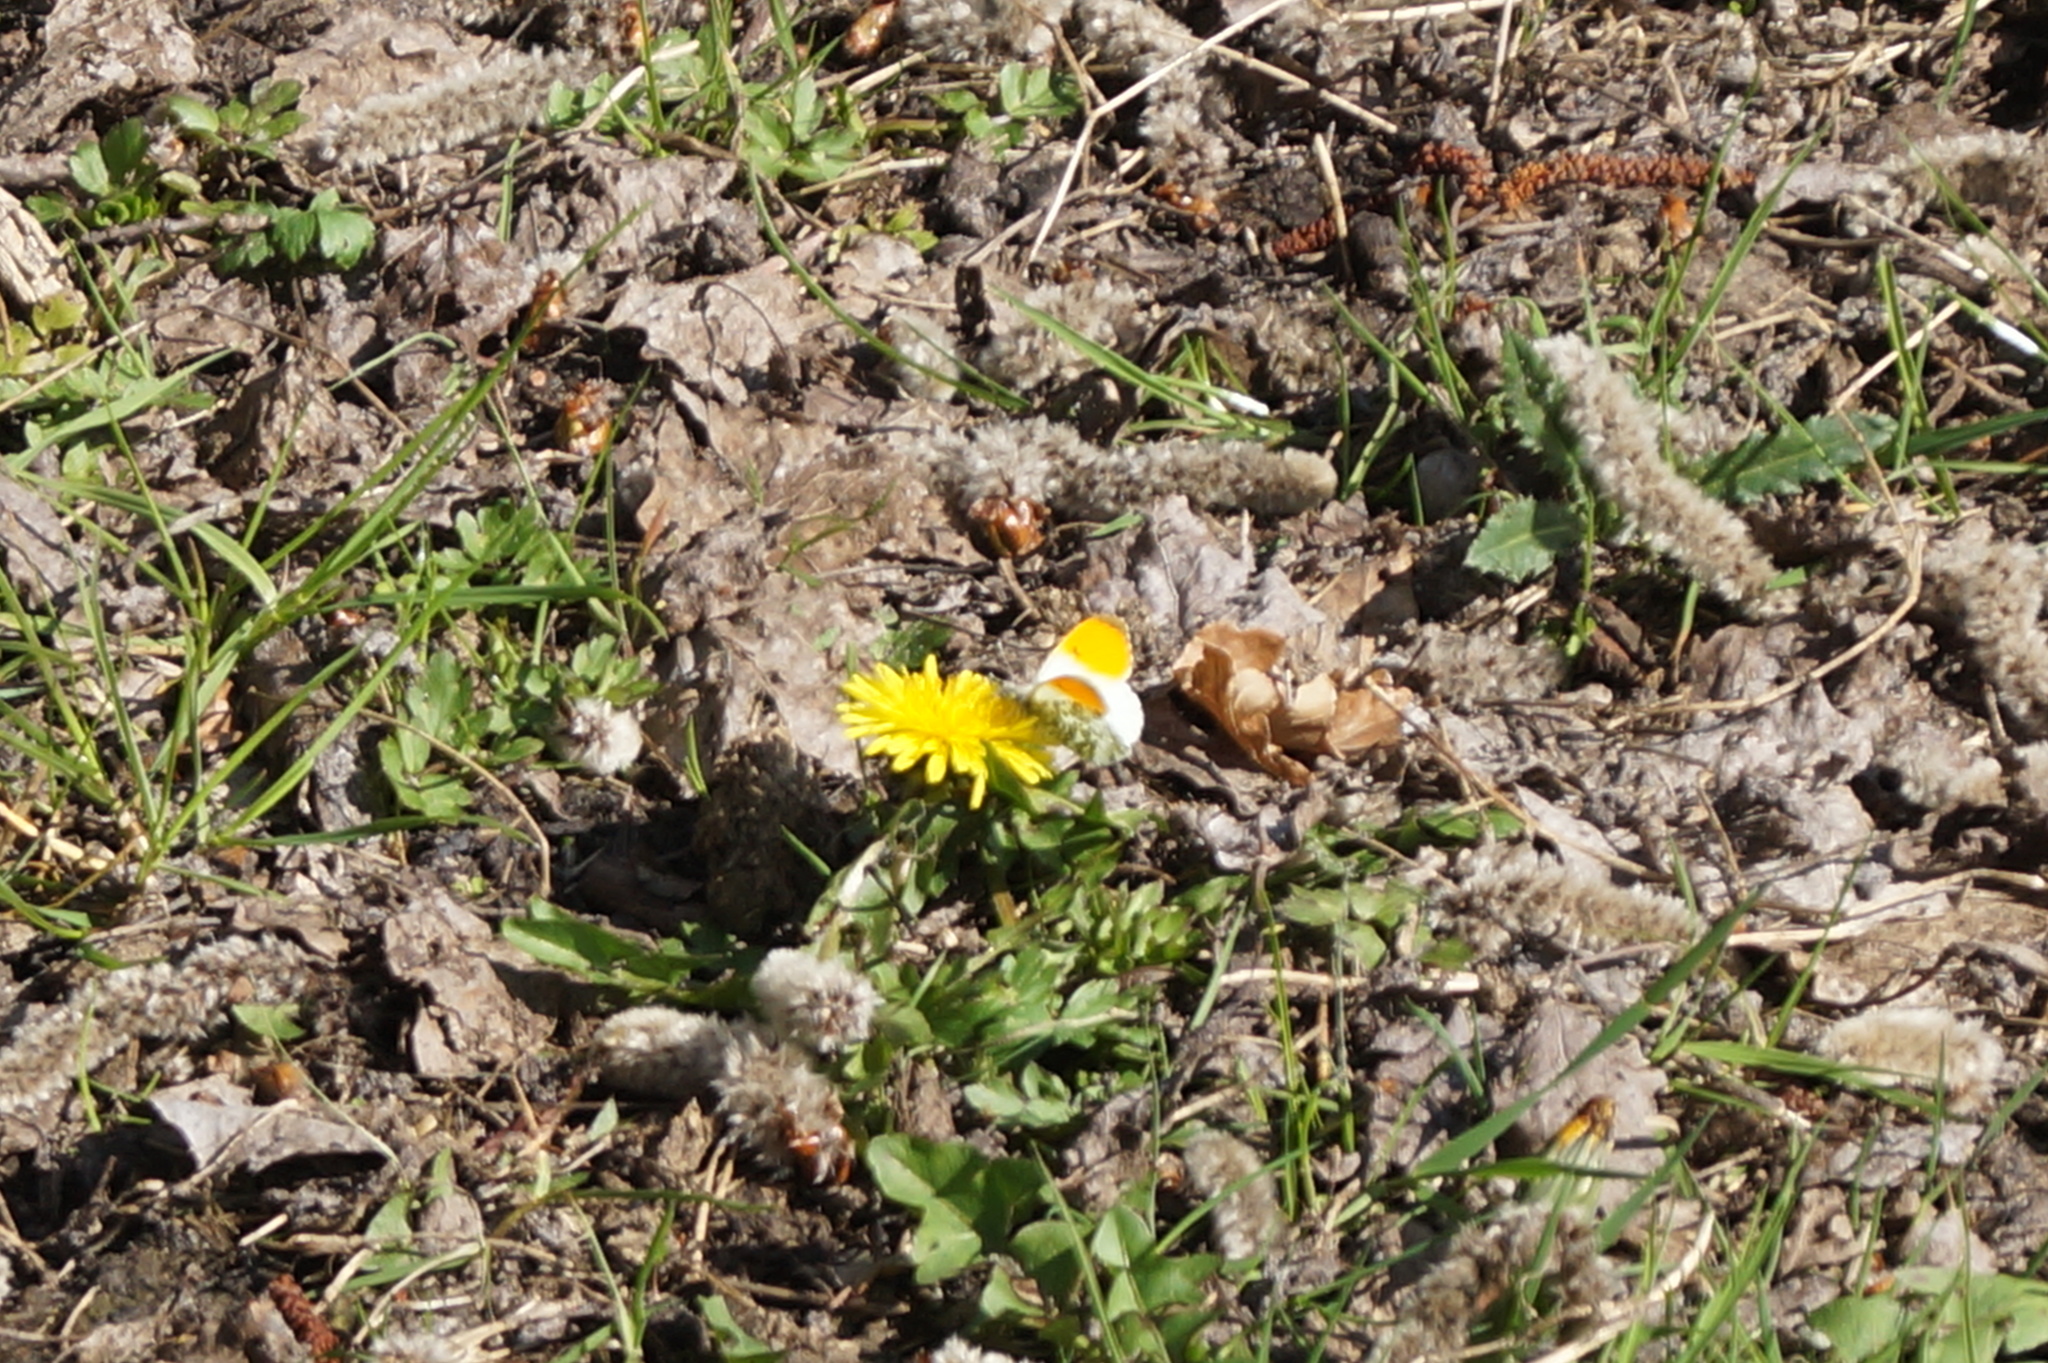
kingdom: Animalia
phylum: Arthropoda
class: Insecta
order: Lepidoptera
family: Pieridae
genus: Anthocharis
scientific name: Anthocharis cardamines
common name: Orange-tip
